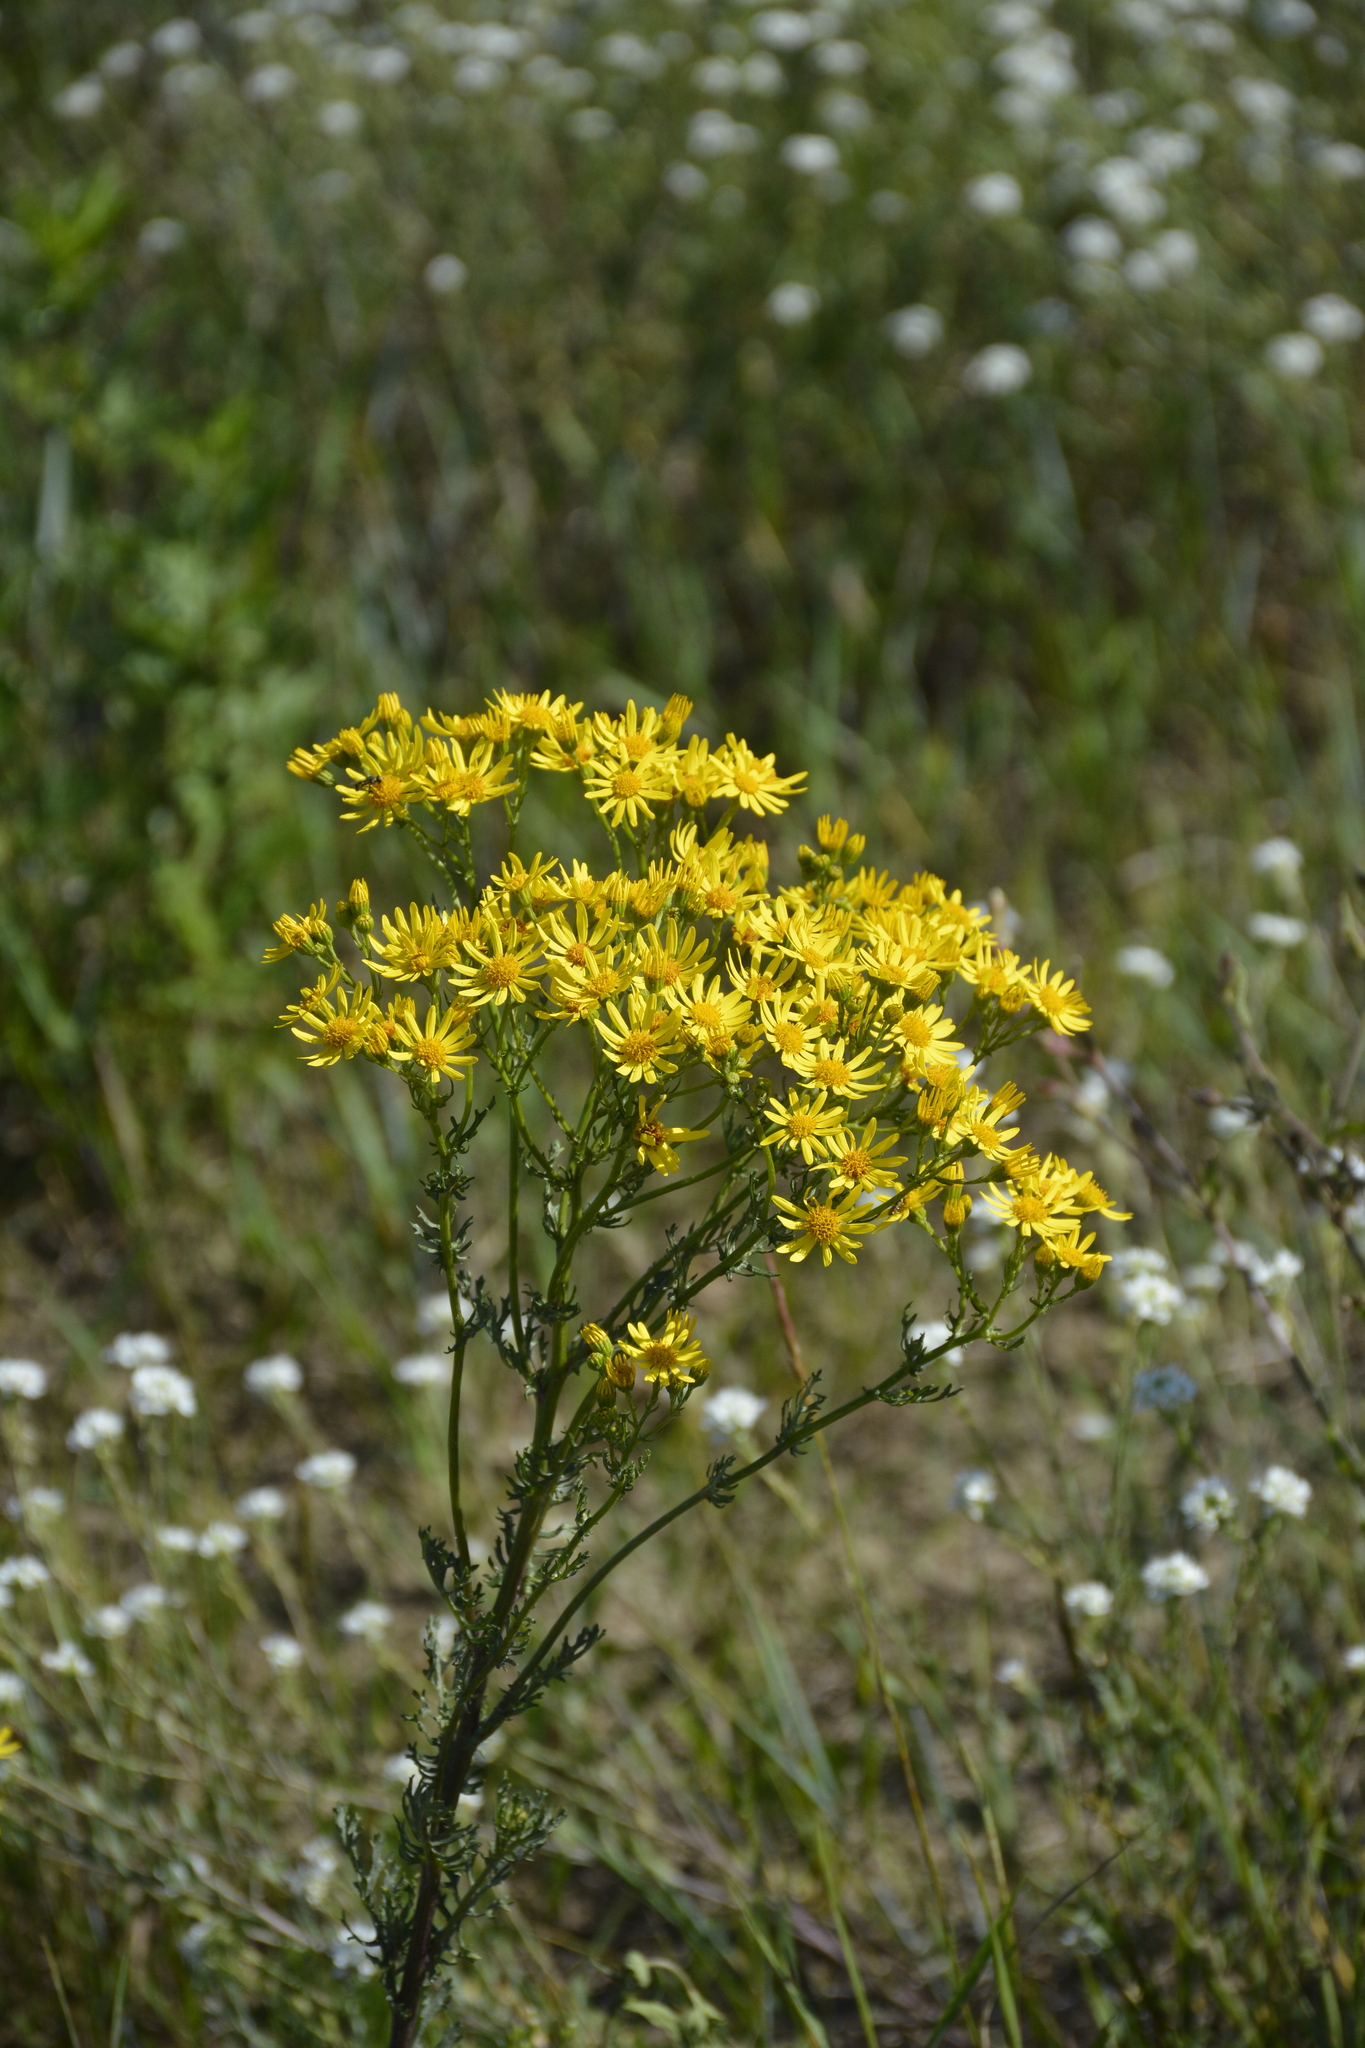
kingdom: Plantae
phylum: Tracheophyta
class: Magnoliopsida
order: Asterales
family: Asteraceae
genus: Jacobaea
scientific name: Jacobaea vulgaris
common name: Stinking willie
